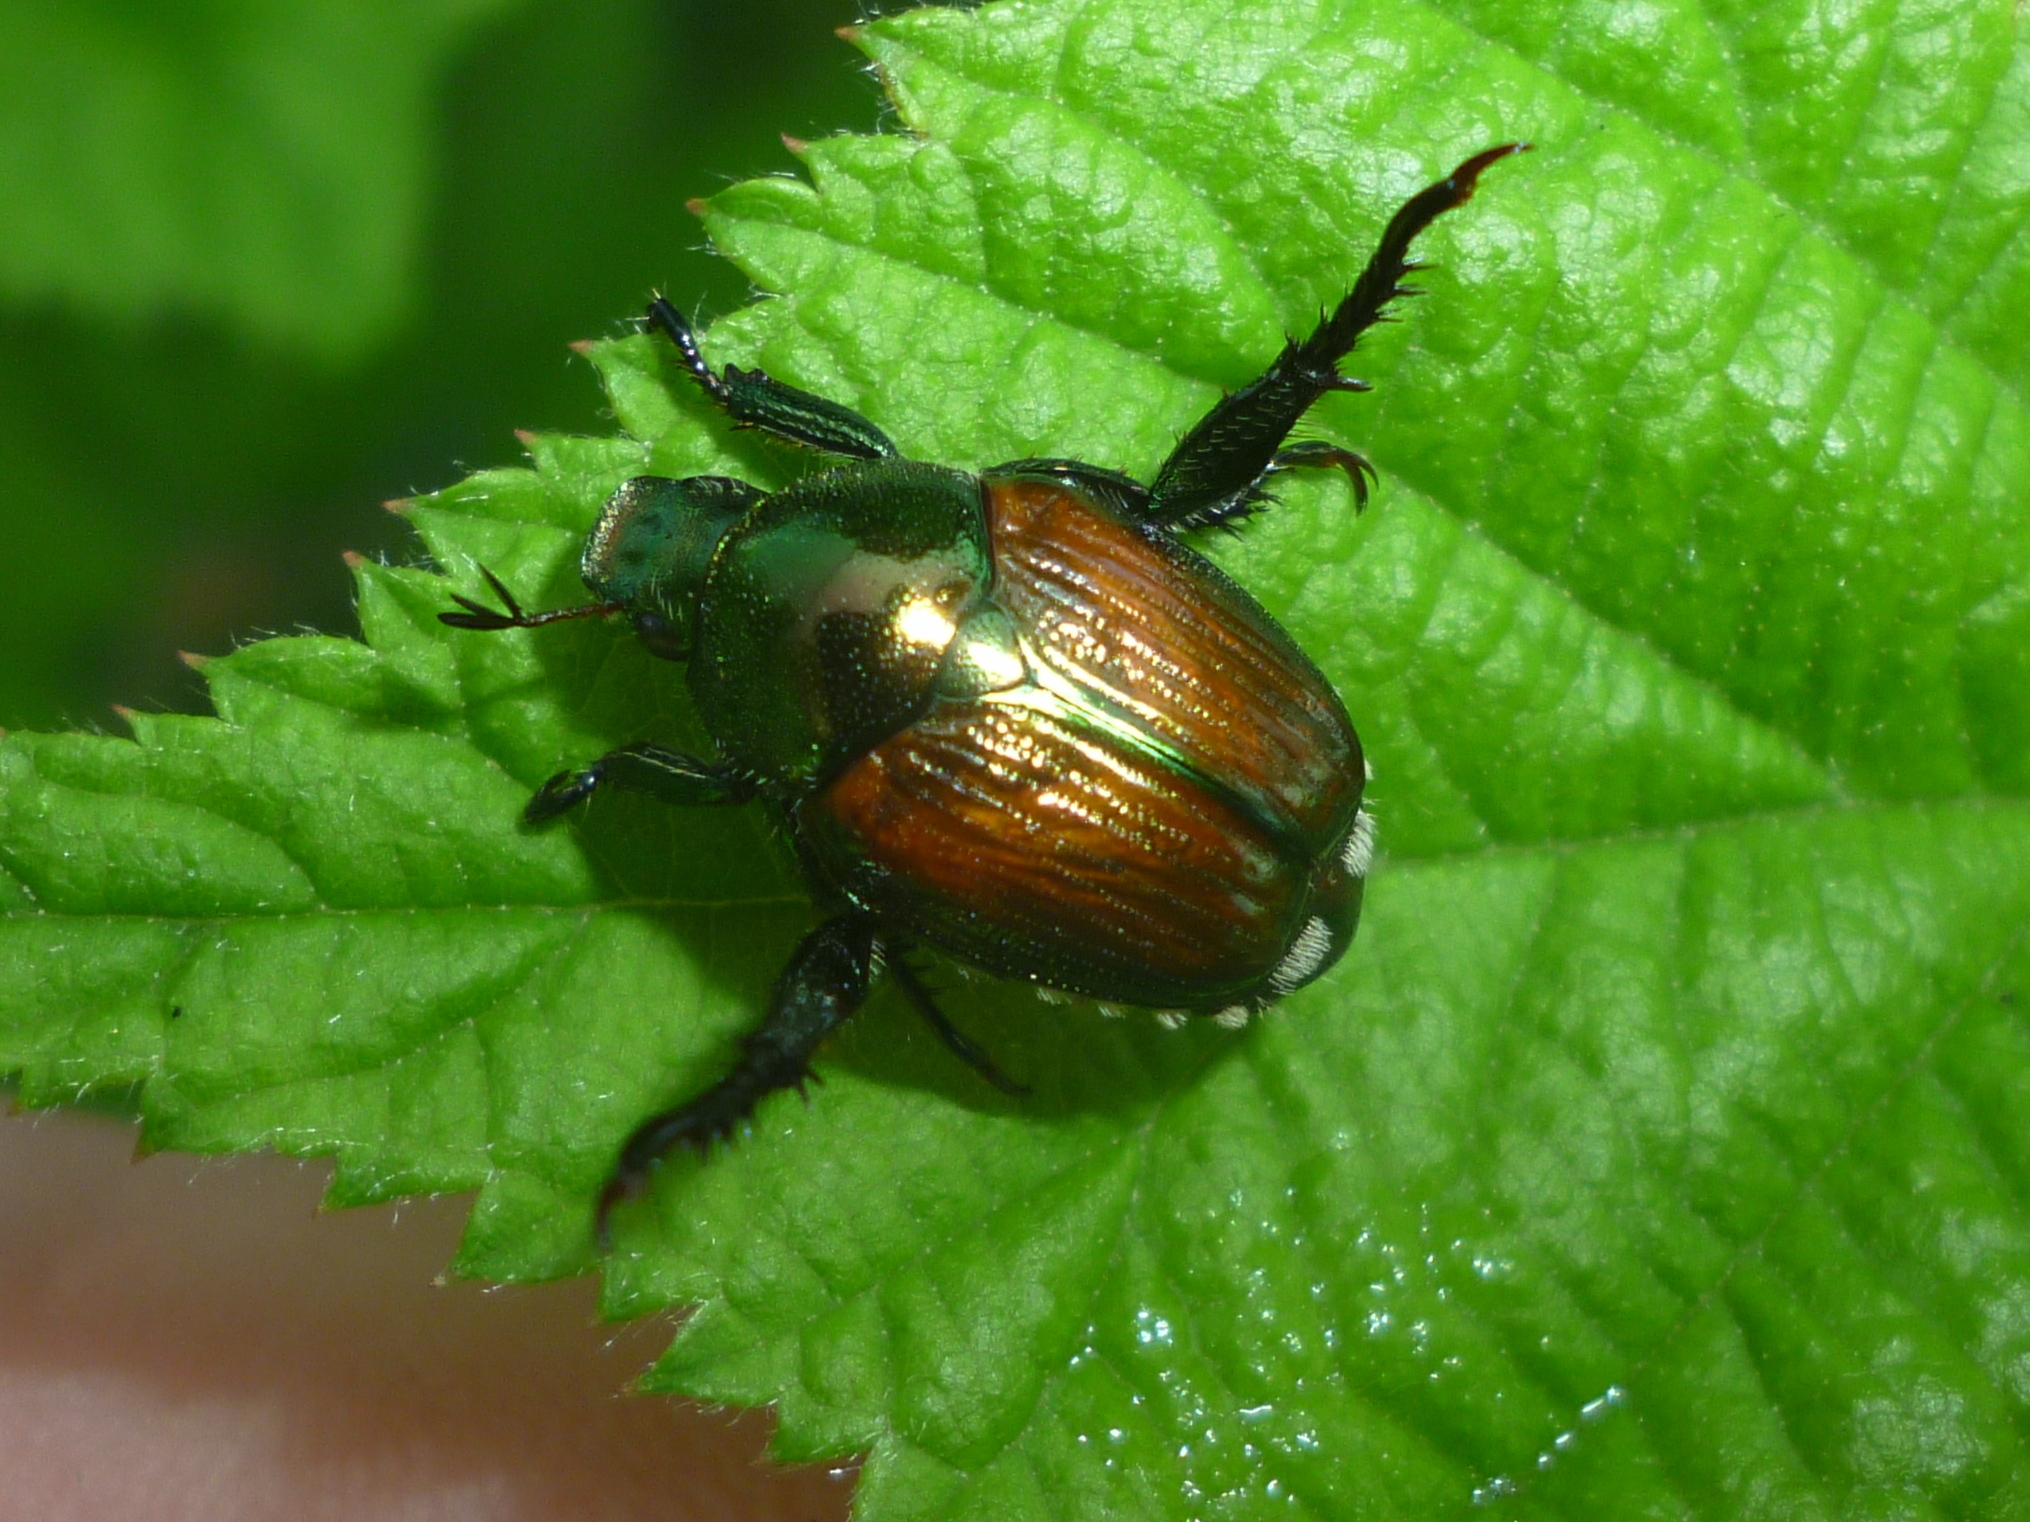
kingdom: Animalia
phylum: Arthropoda
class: Insecta
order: Coleoptera
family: Scarabaeidae
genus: Popillia
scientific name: Popillia japonica
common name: Japanese beetle
